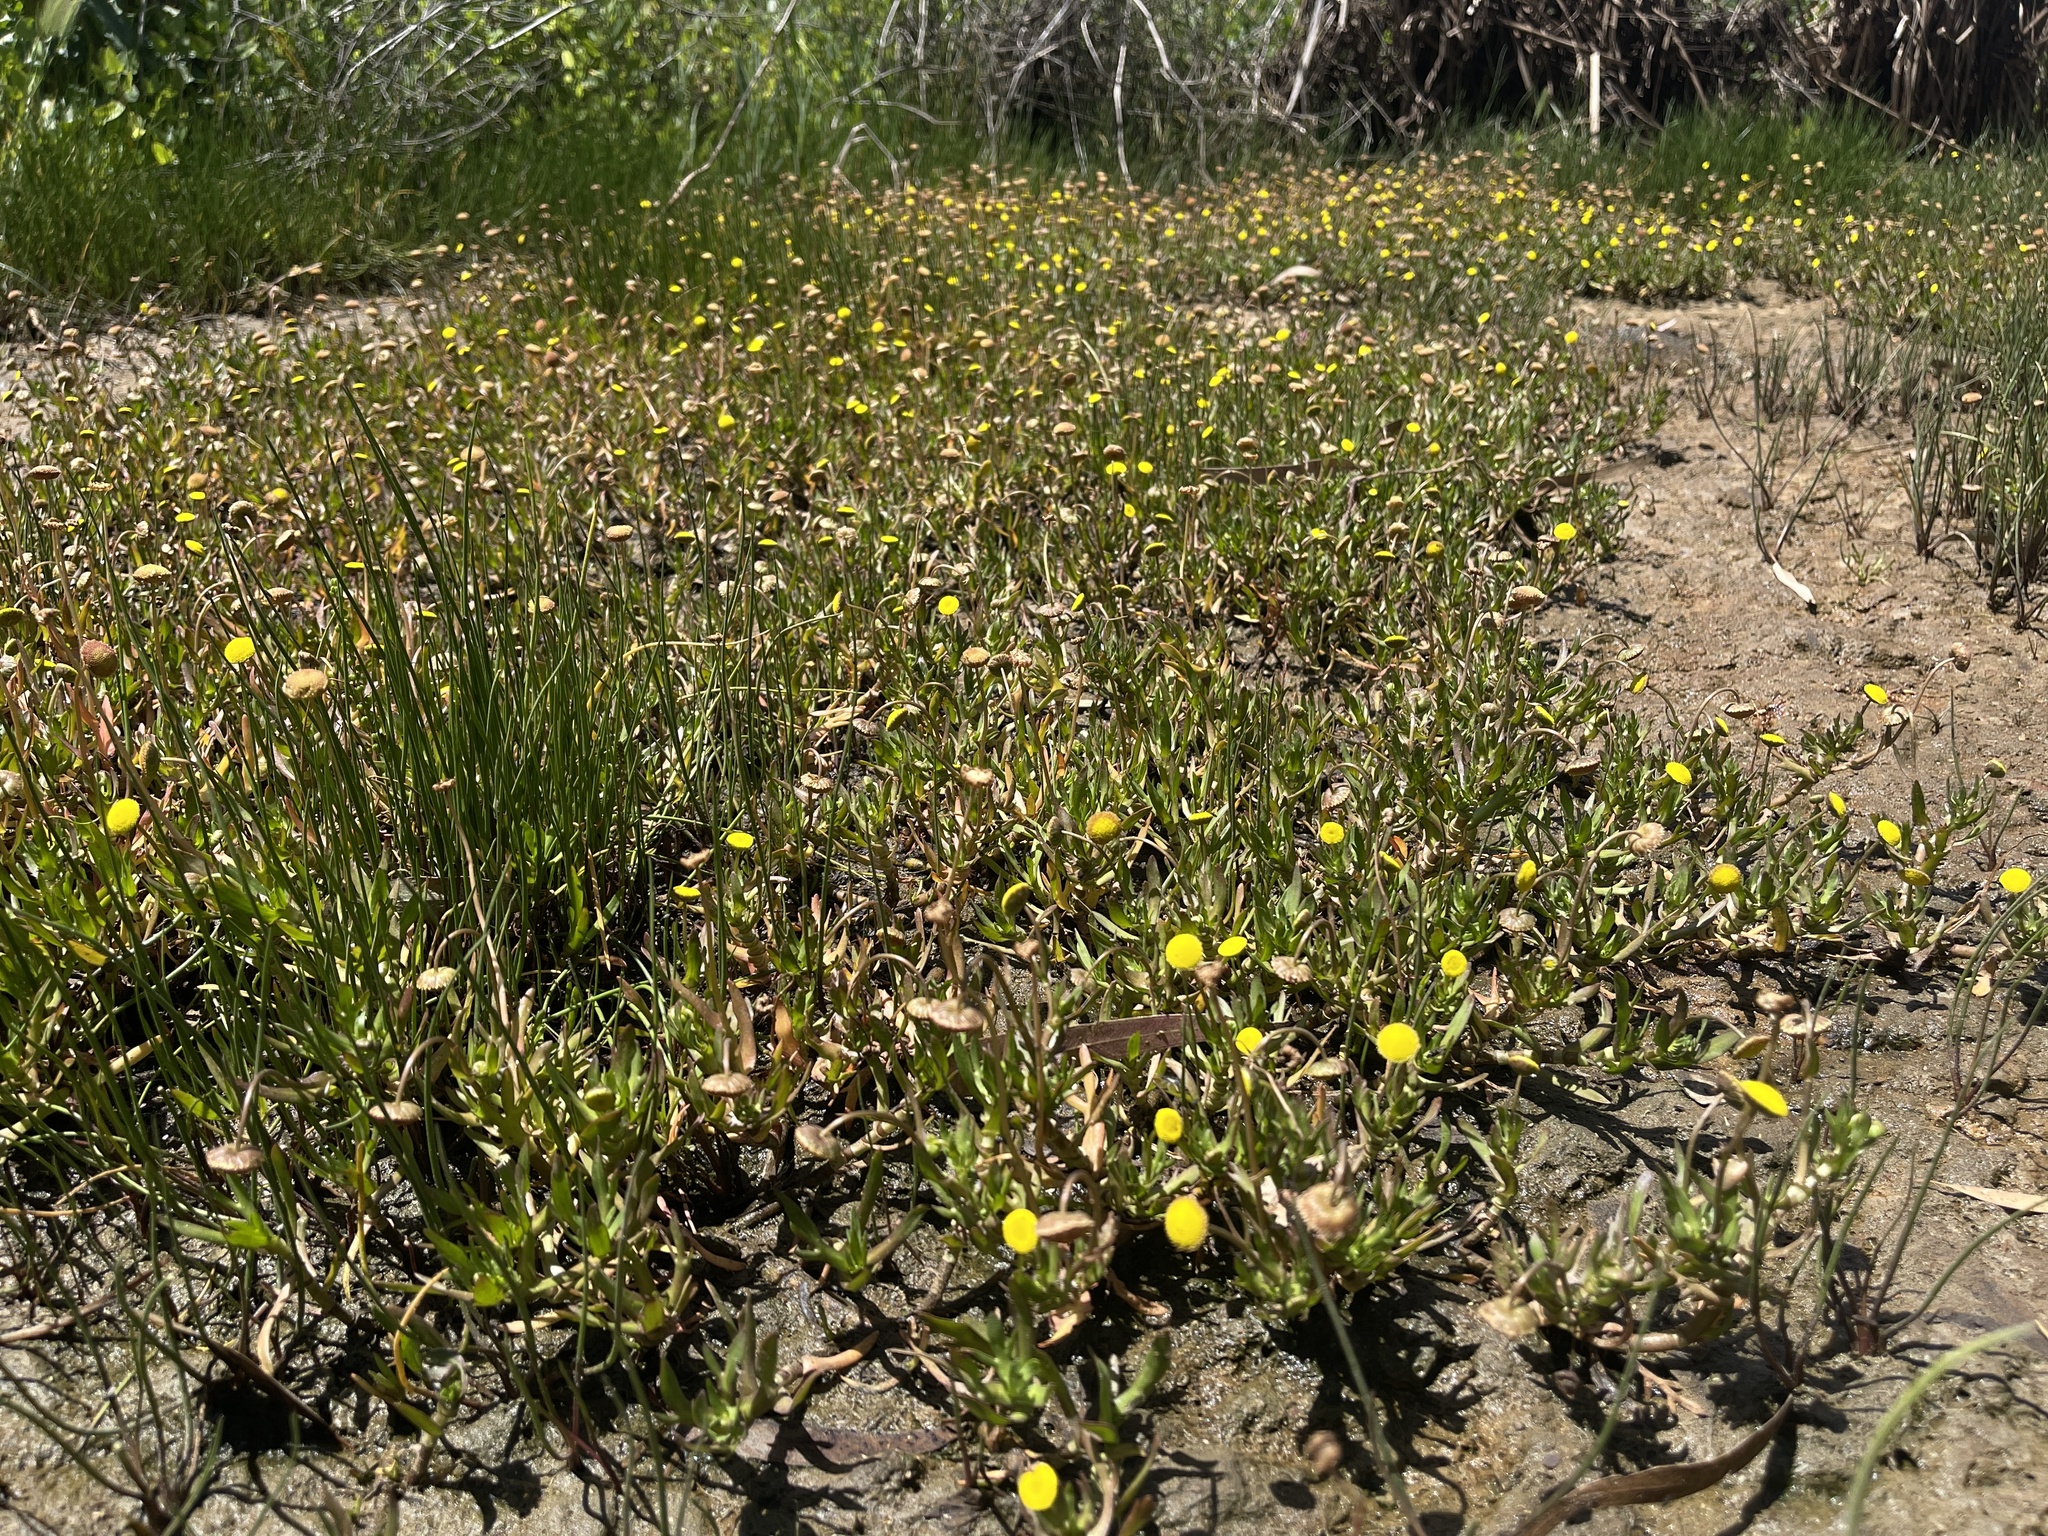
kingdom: Plantae
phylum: Tracheophyta
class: Magnoliopsida
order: Asterales
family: Asteraceae
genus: Cotula
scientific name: Cotula coronopifolia
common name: Buttonweed
